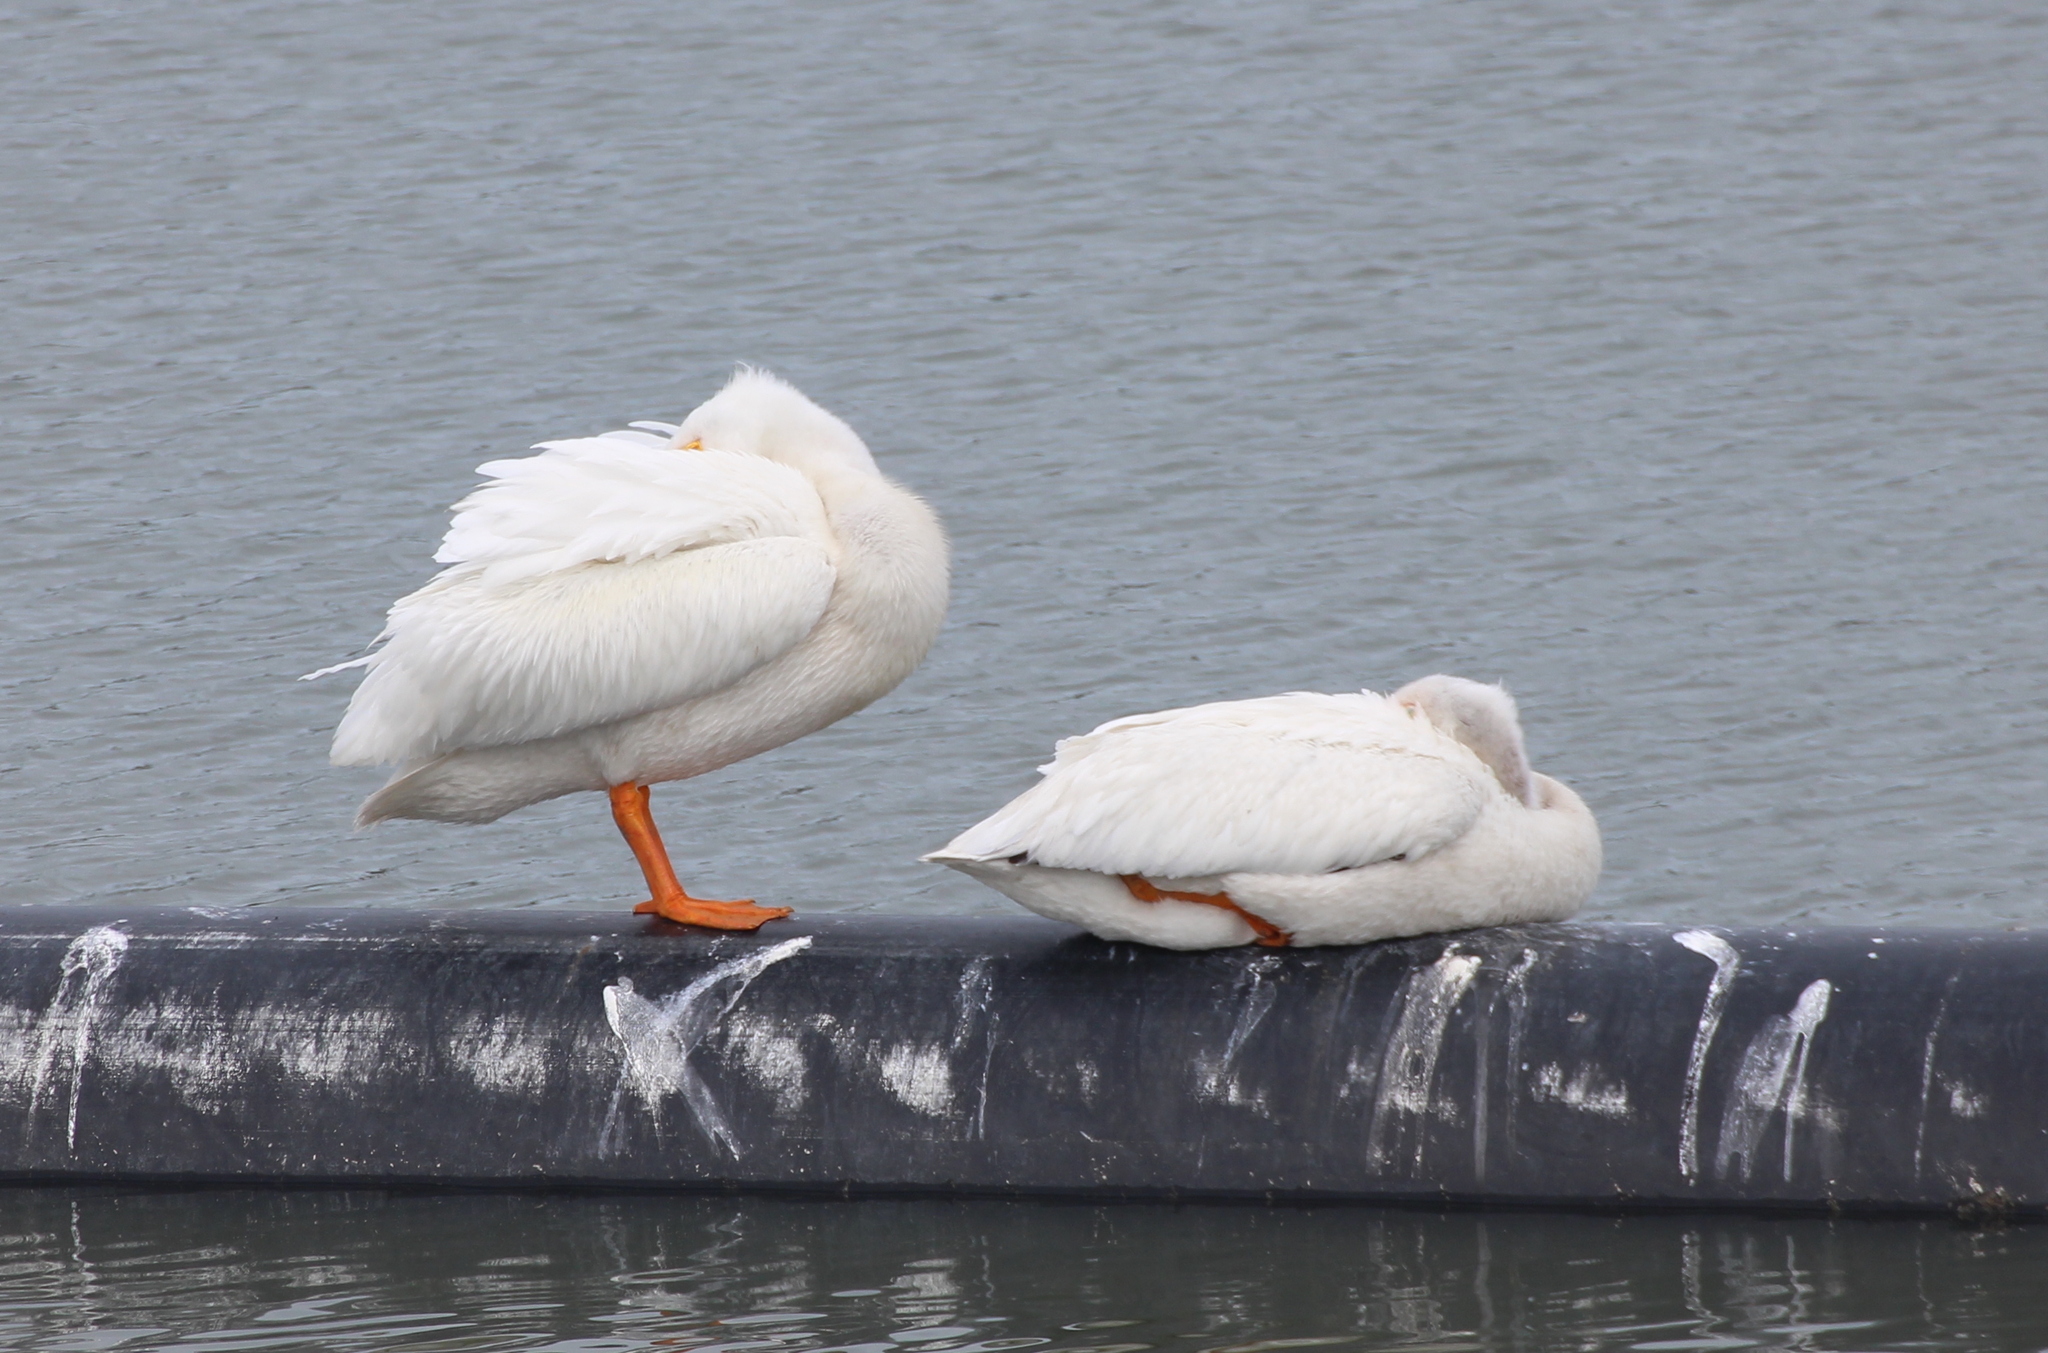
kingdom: Animalia
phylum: Chordata
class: Aves
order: Pelecaniformes
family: Pelecanidae
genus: Pelecanus
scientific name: Pelecanus erythrorhynchos
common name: American white pelican
